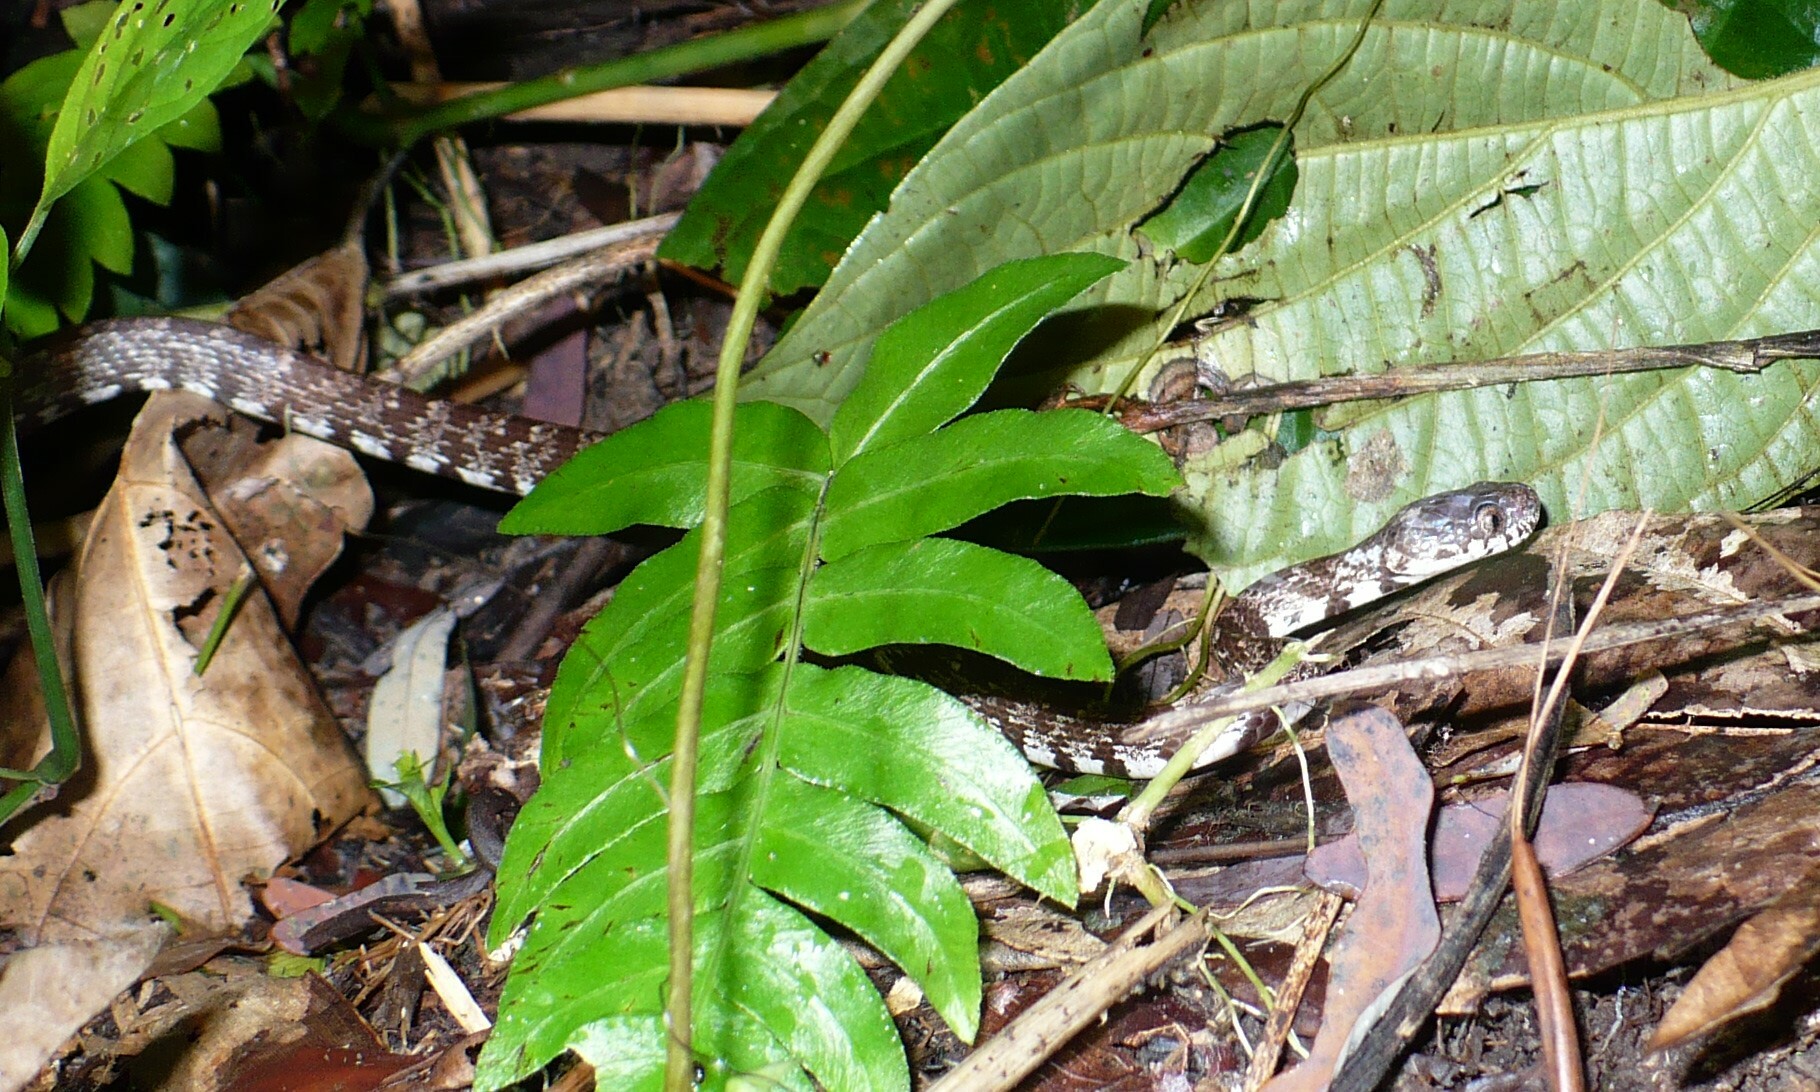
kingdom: Animalia
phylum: Chordata
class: Squamata
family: Colubridae
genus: Sibon
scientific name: Sibon nebulatus
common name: Cloudy snail-eating snake
